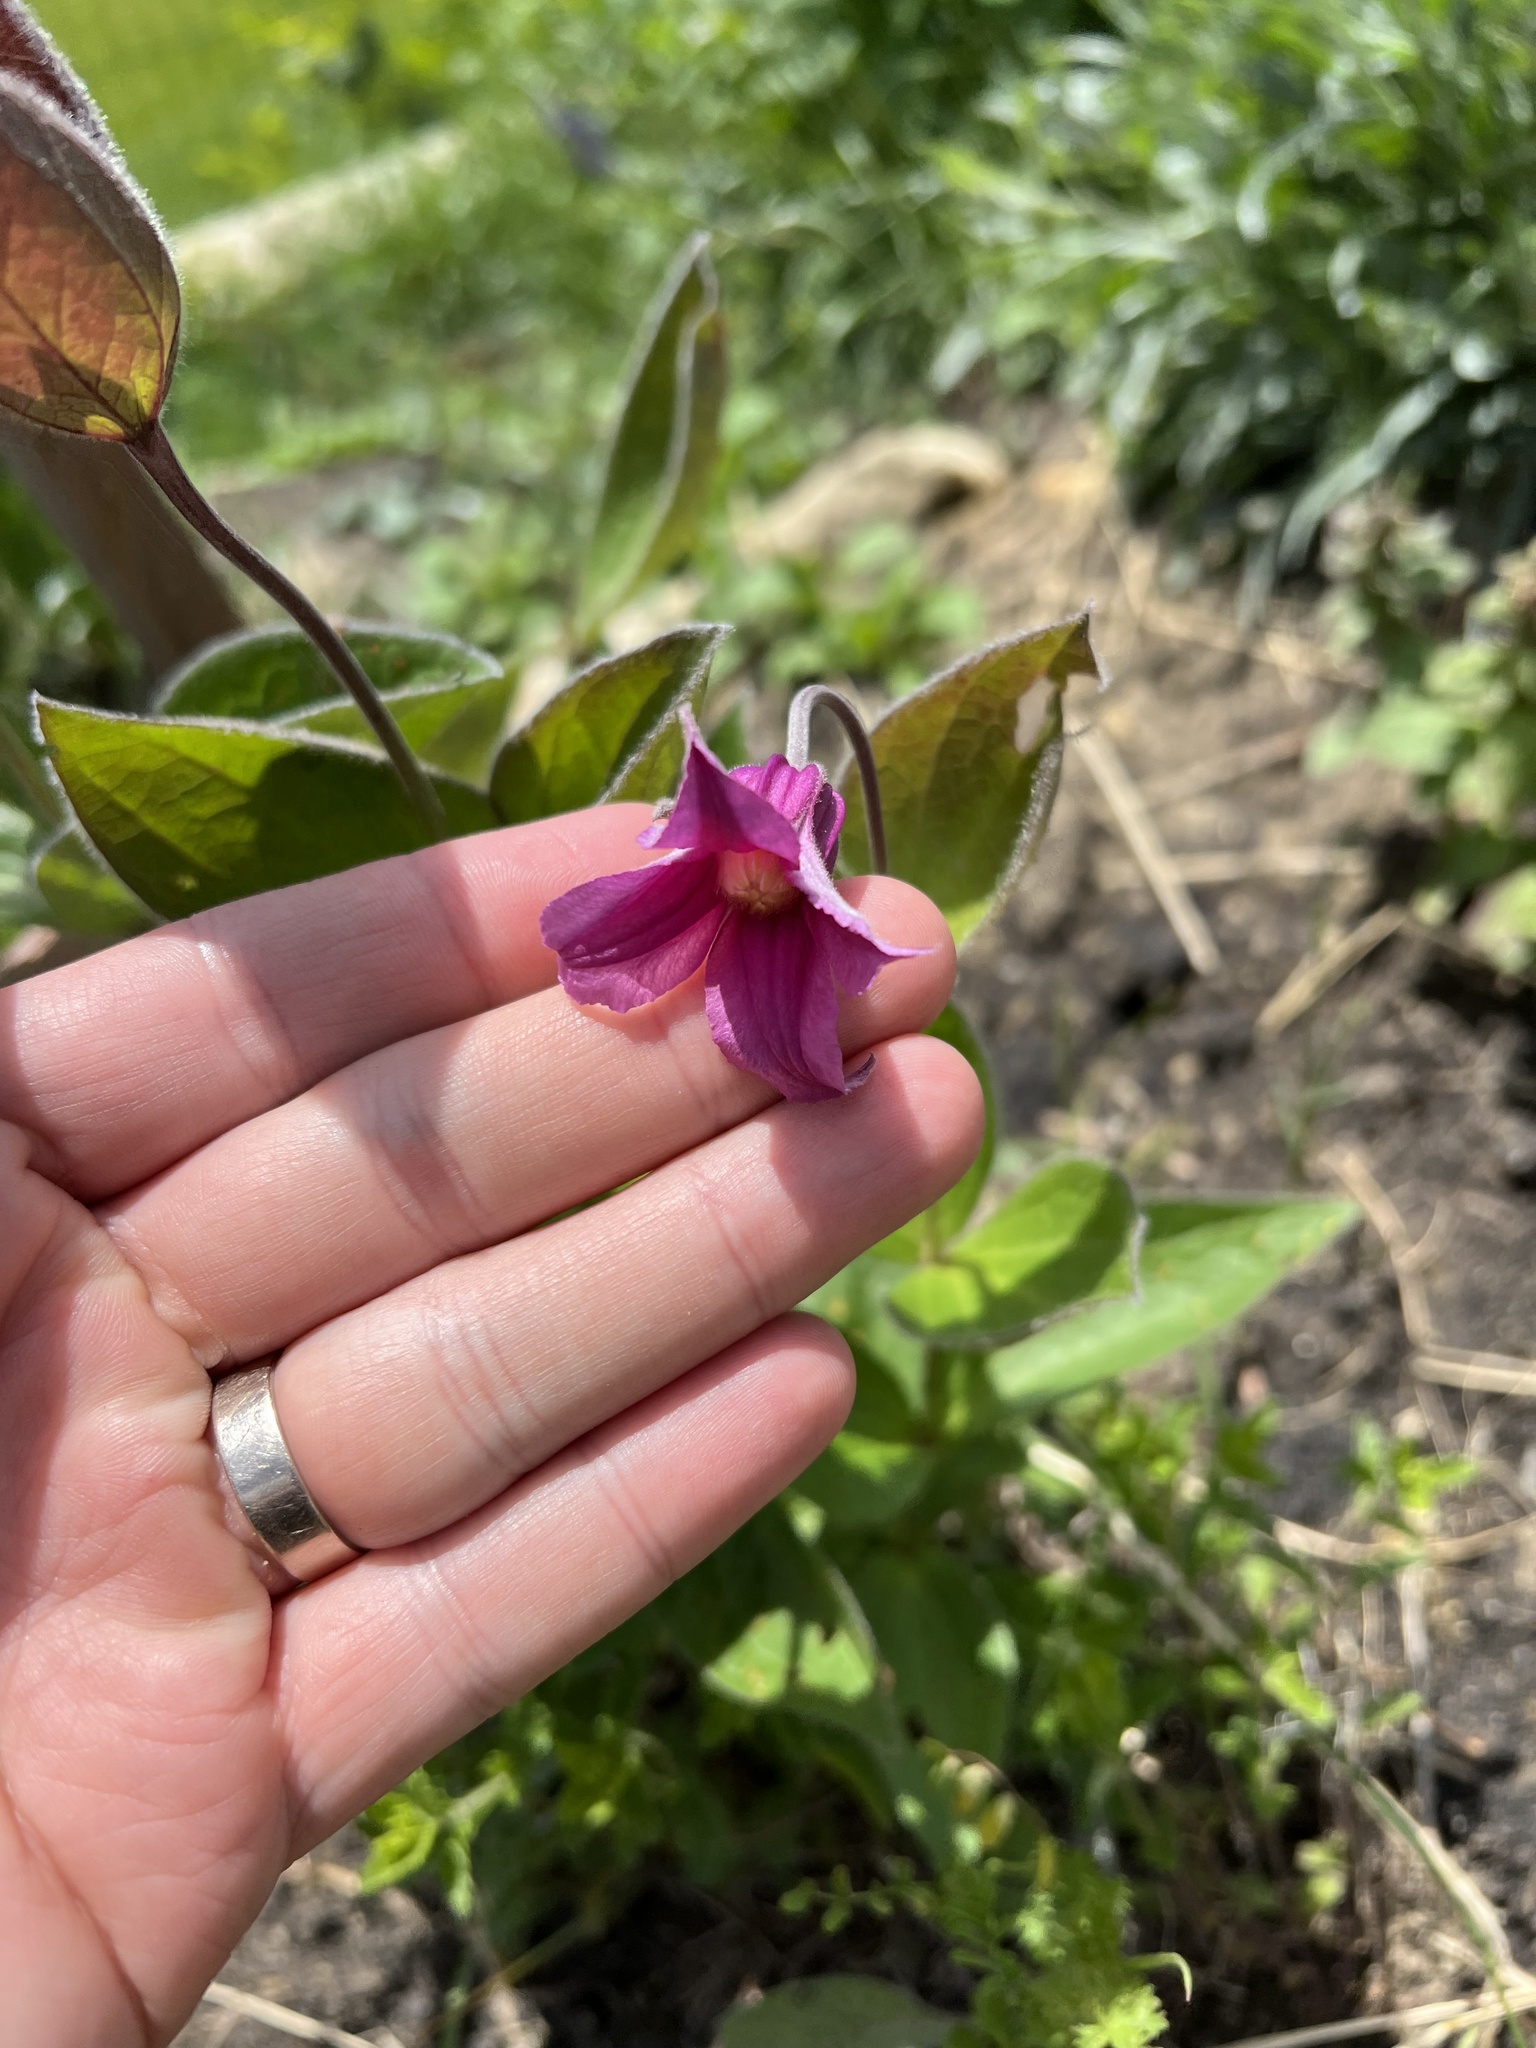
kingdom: Plantae
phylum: Tracheophyta
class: Magnoliopsida
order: Ranunculales
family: Ranunculaceae
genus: Clematis
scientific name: Clematis integrifolia
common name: Solitary clematis
